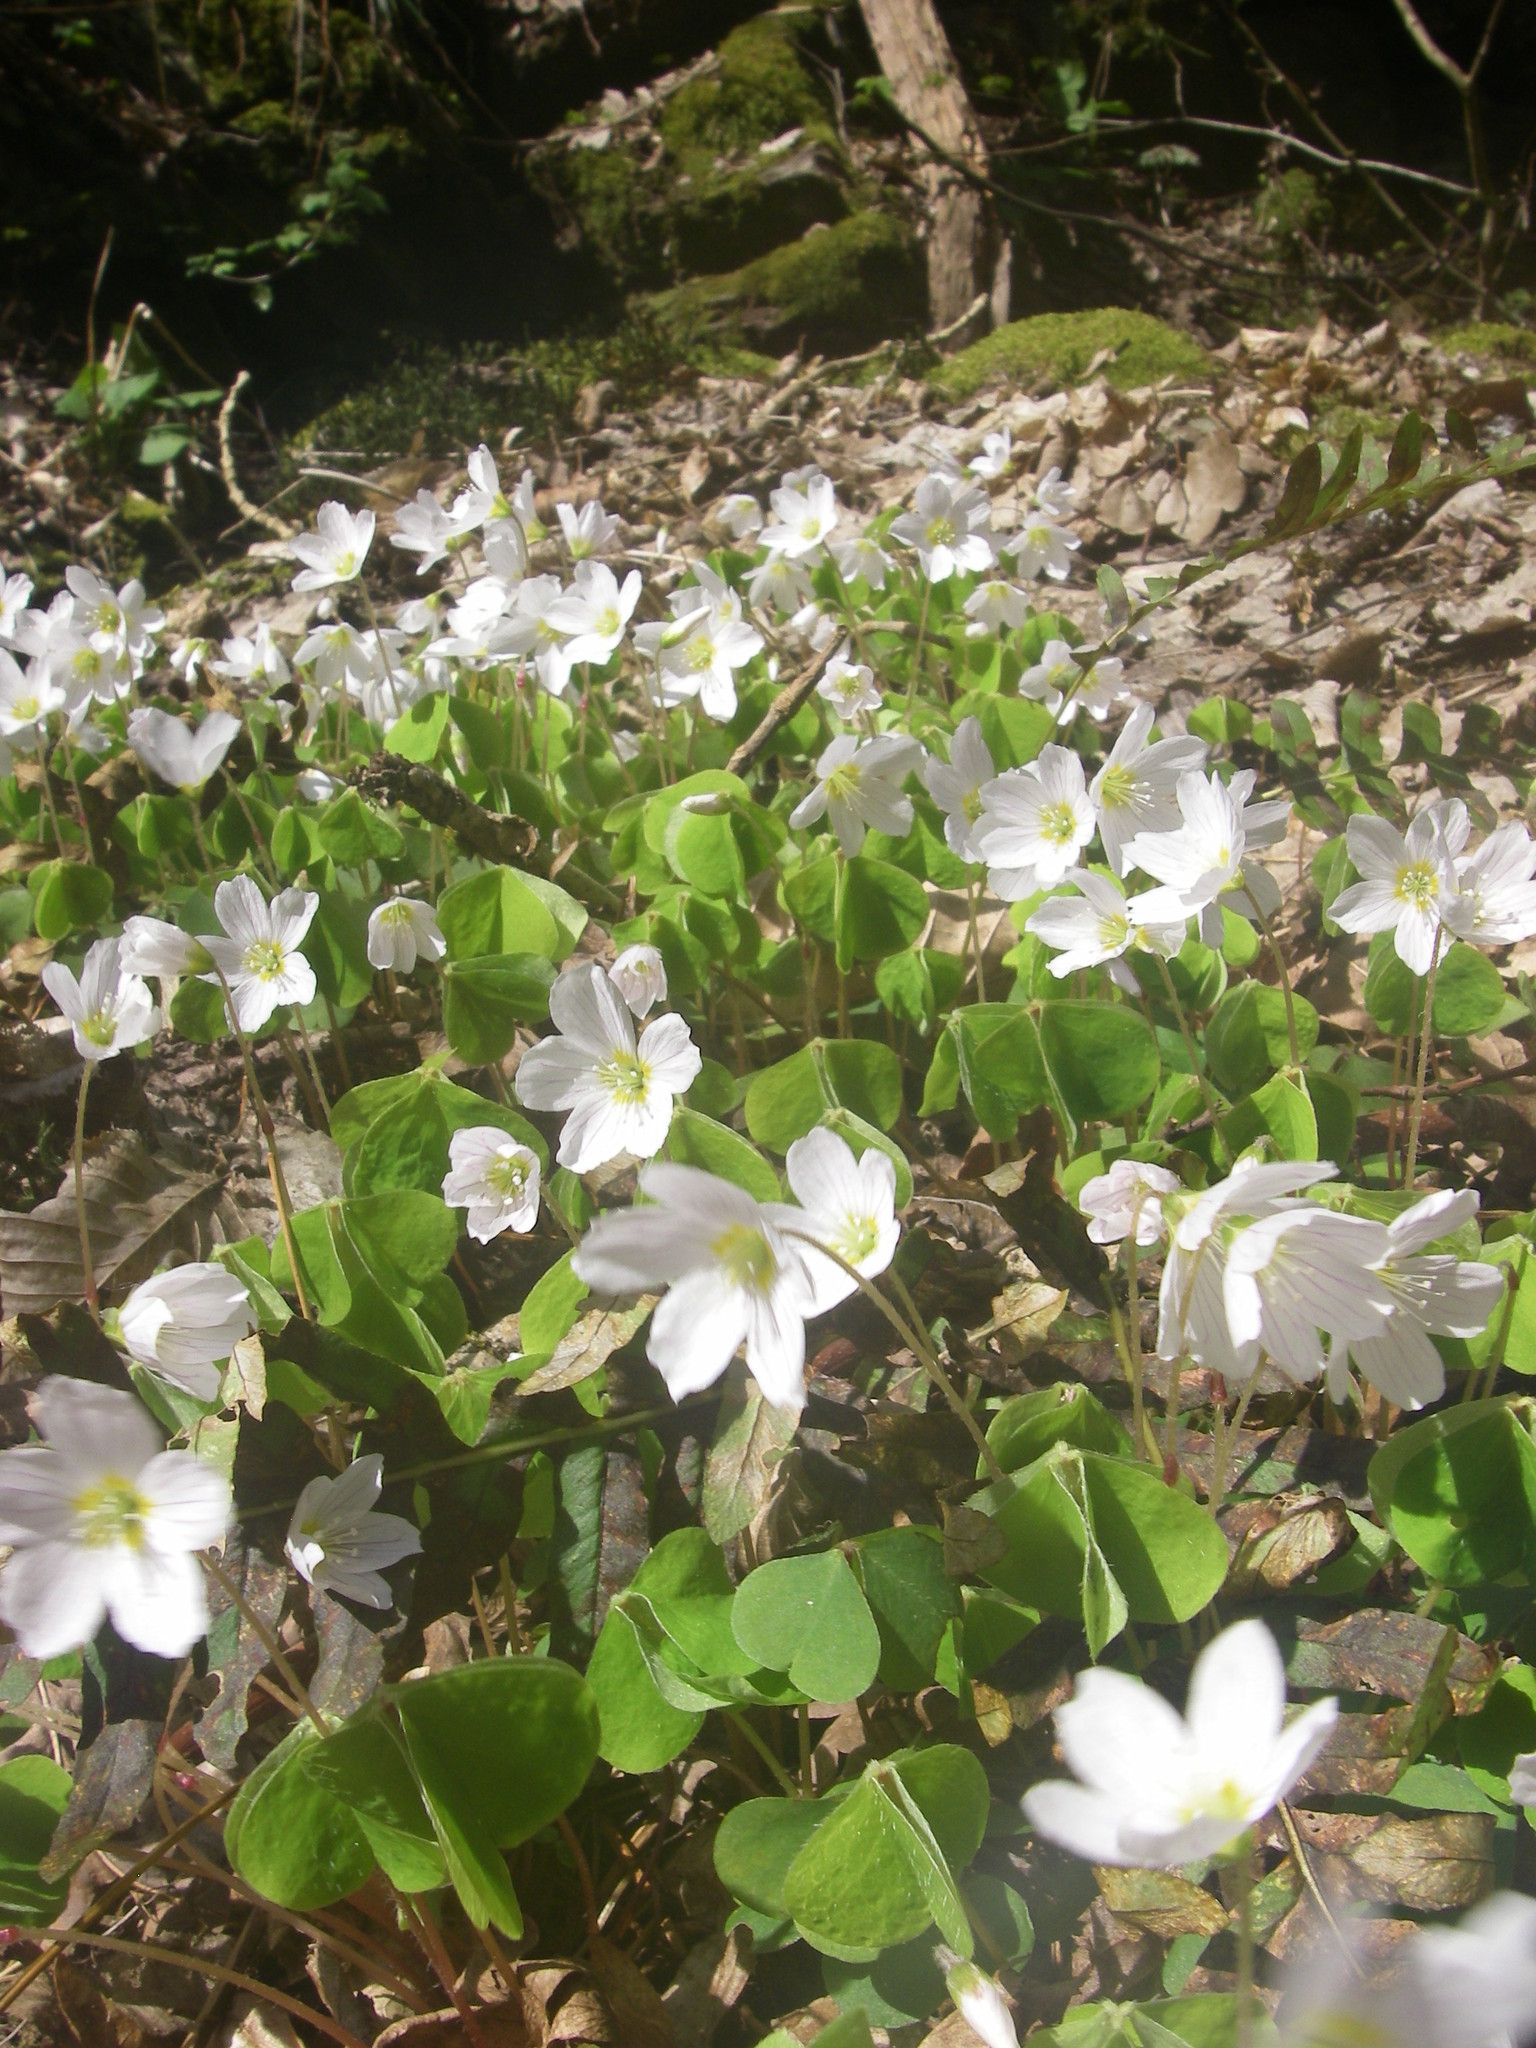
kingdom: Plantae
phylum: Tracheophyta
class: Magnoliopsida
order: Oxalidales
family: Oxalidaceae
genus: Oxalis
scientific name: Oxalis acetosella
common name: Wood-sorrel
